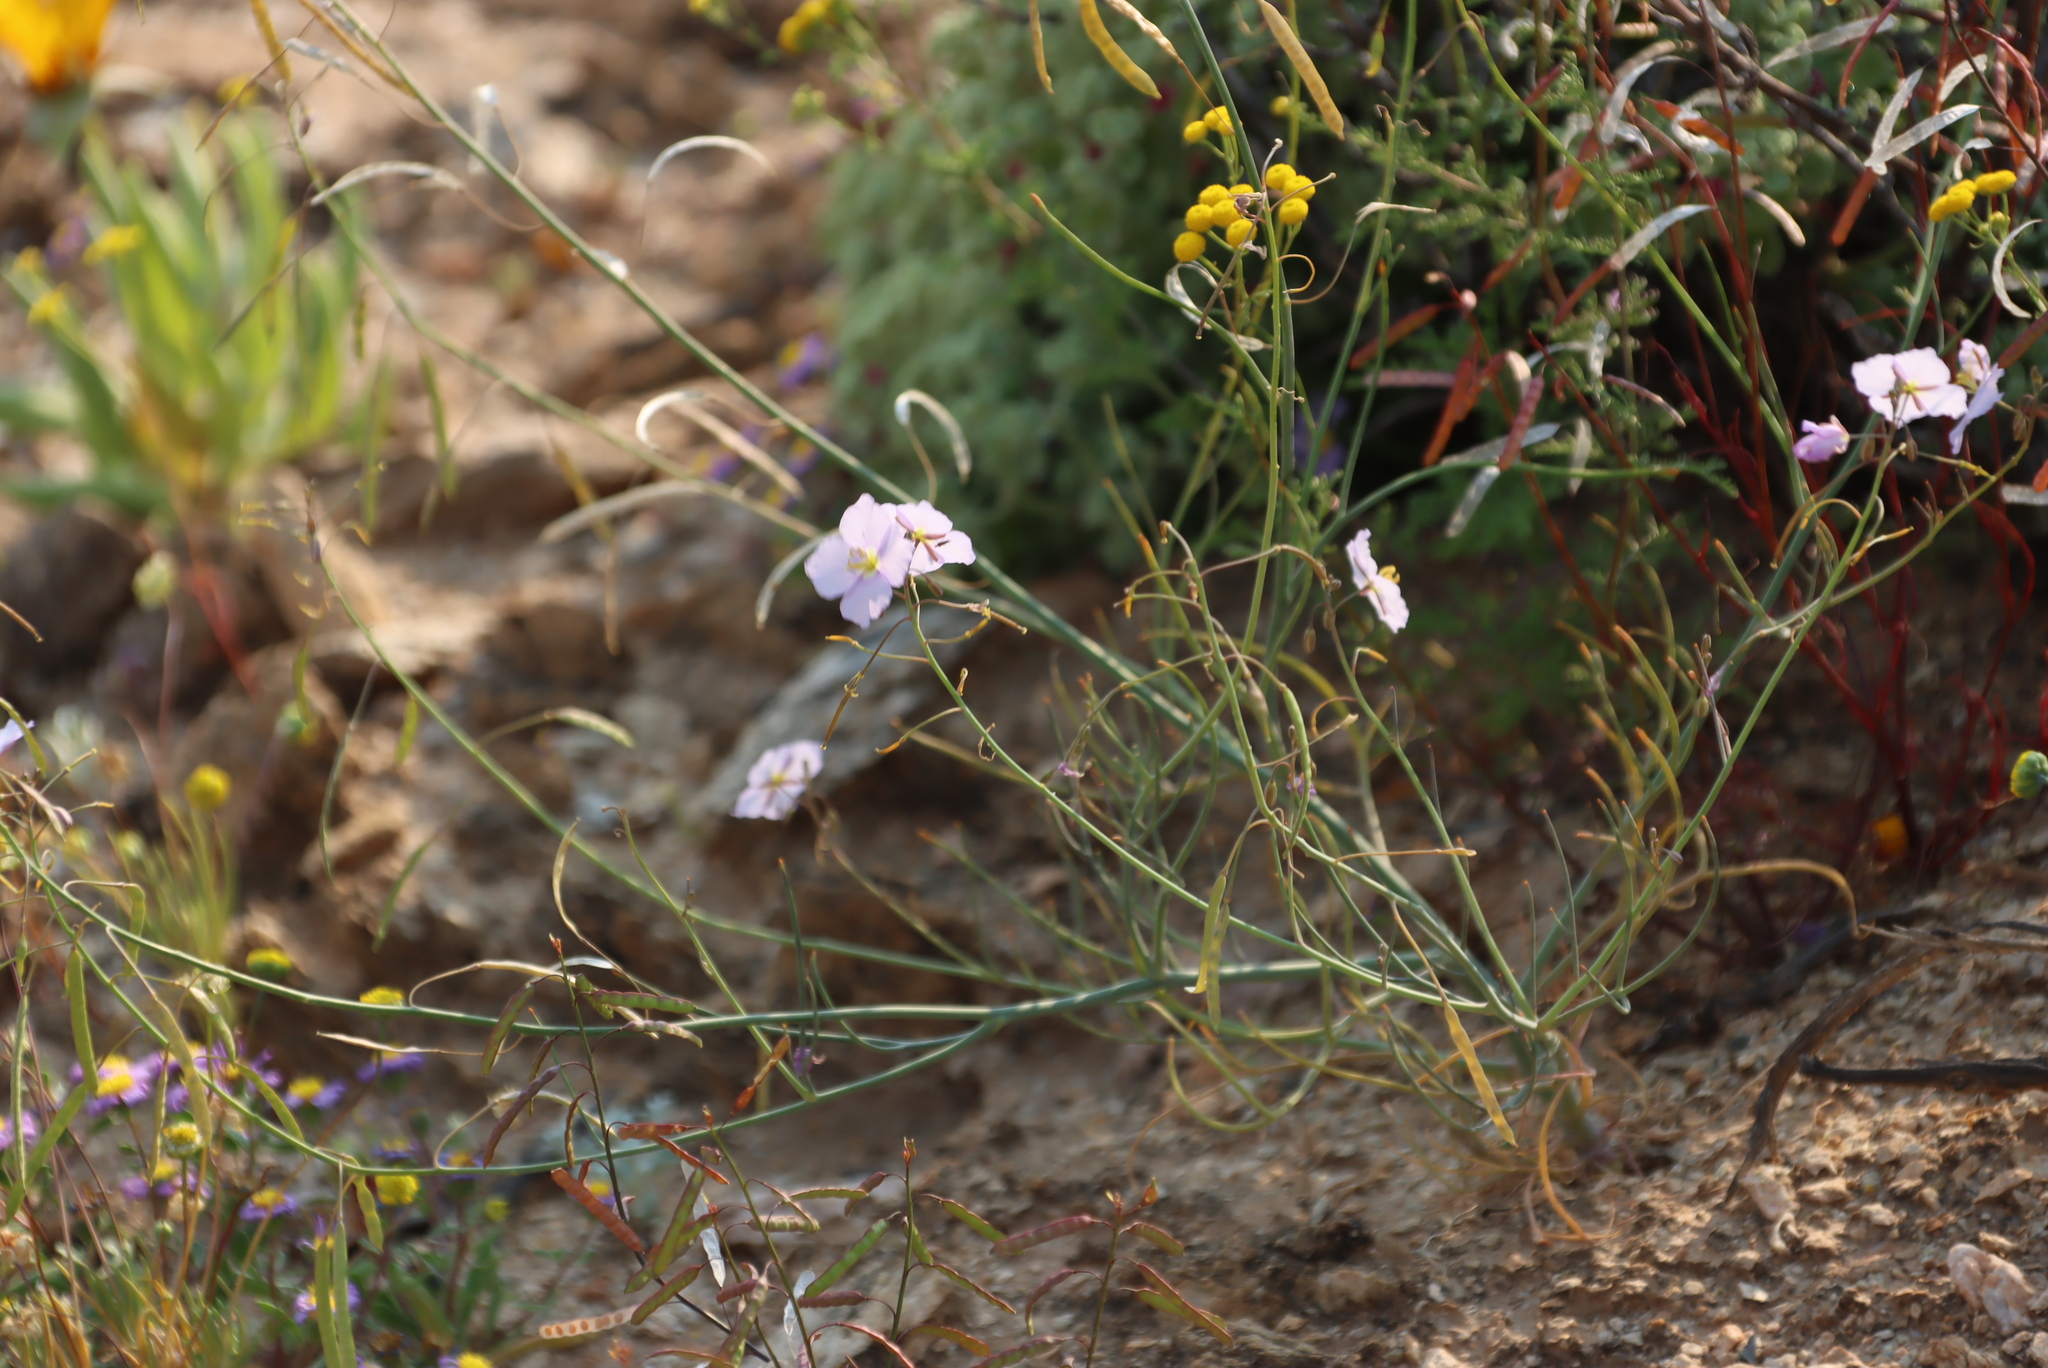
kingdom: Plantae
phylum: Tracheophyta
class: Magnoliopsida
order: Brassicales
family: Brassicaceae
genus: Heliophila
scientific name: Heliophila trifurca
